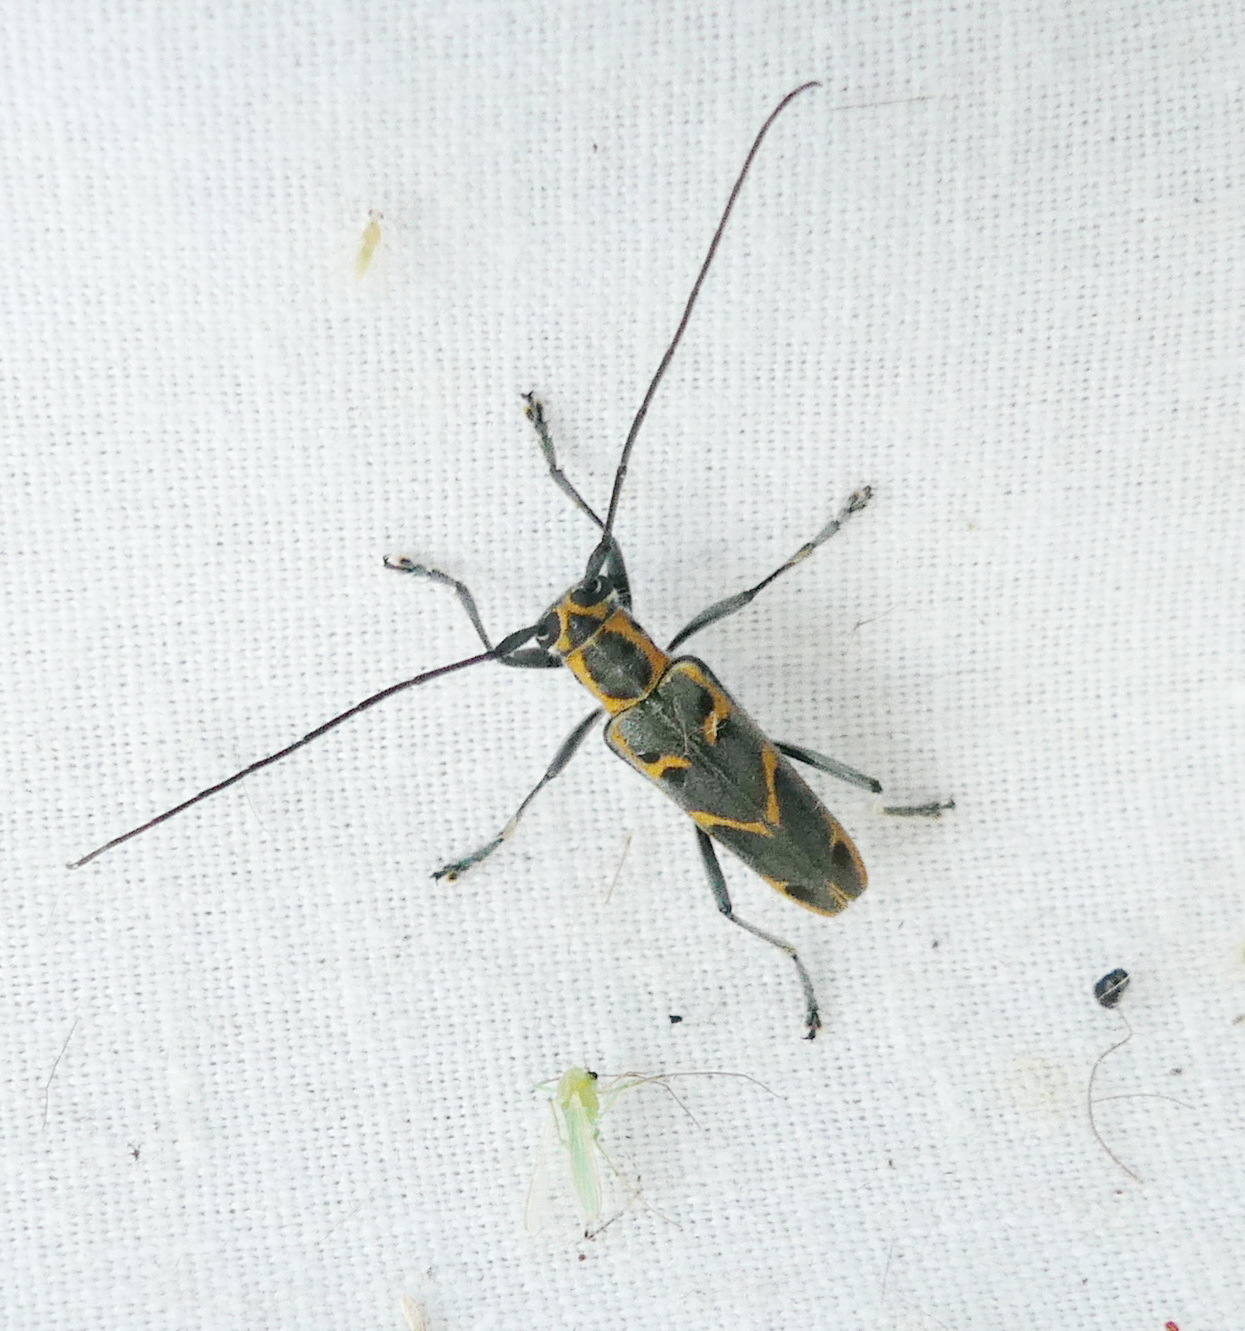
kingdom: Animalia
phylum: Arthropoda
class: Insecta
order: Coleoptera
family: Cerambycidae
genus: Saperda
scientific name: Saperda tridentata
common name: Elm borer
